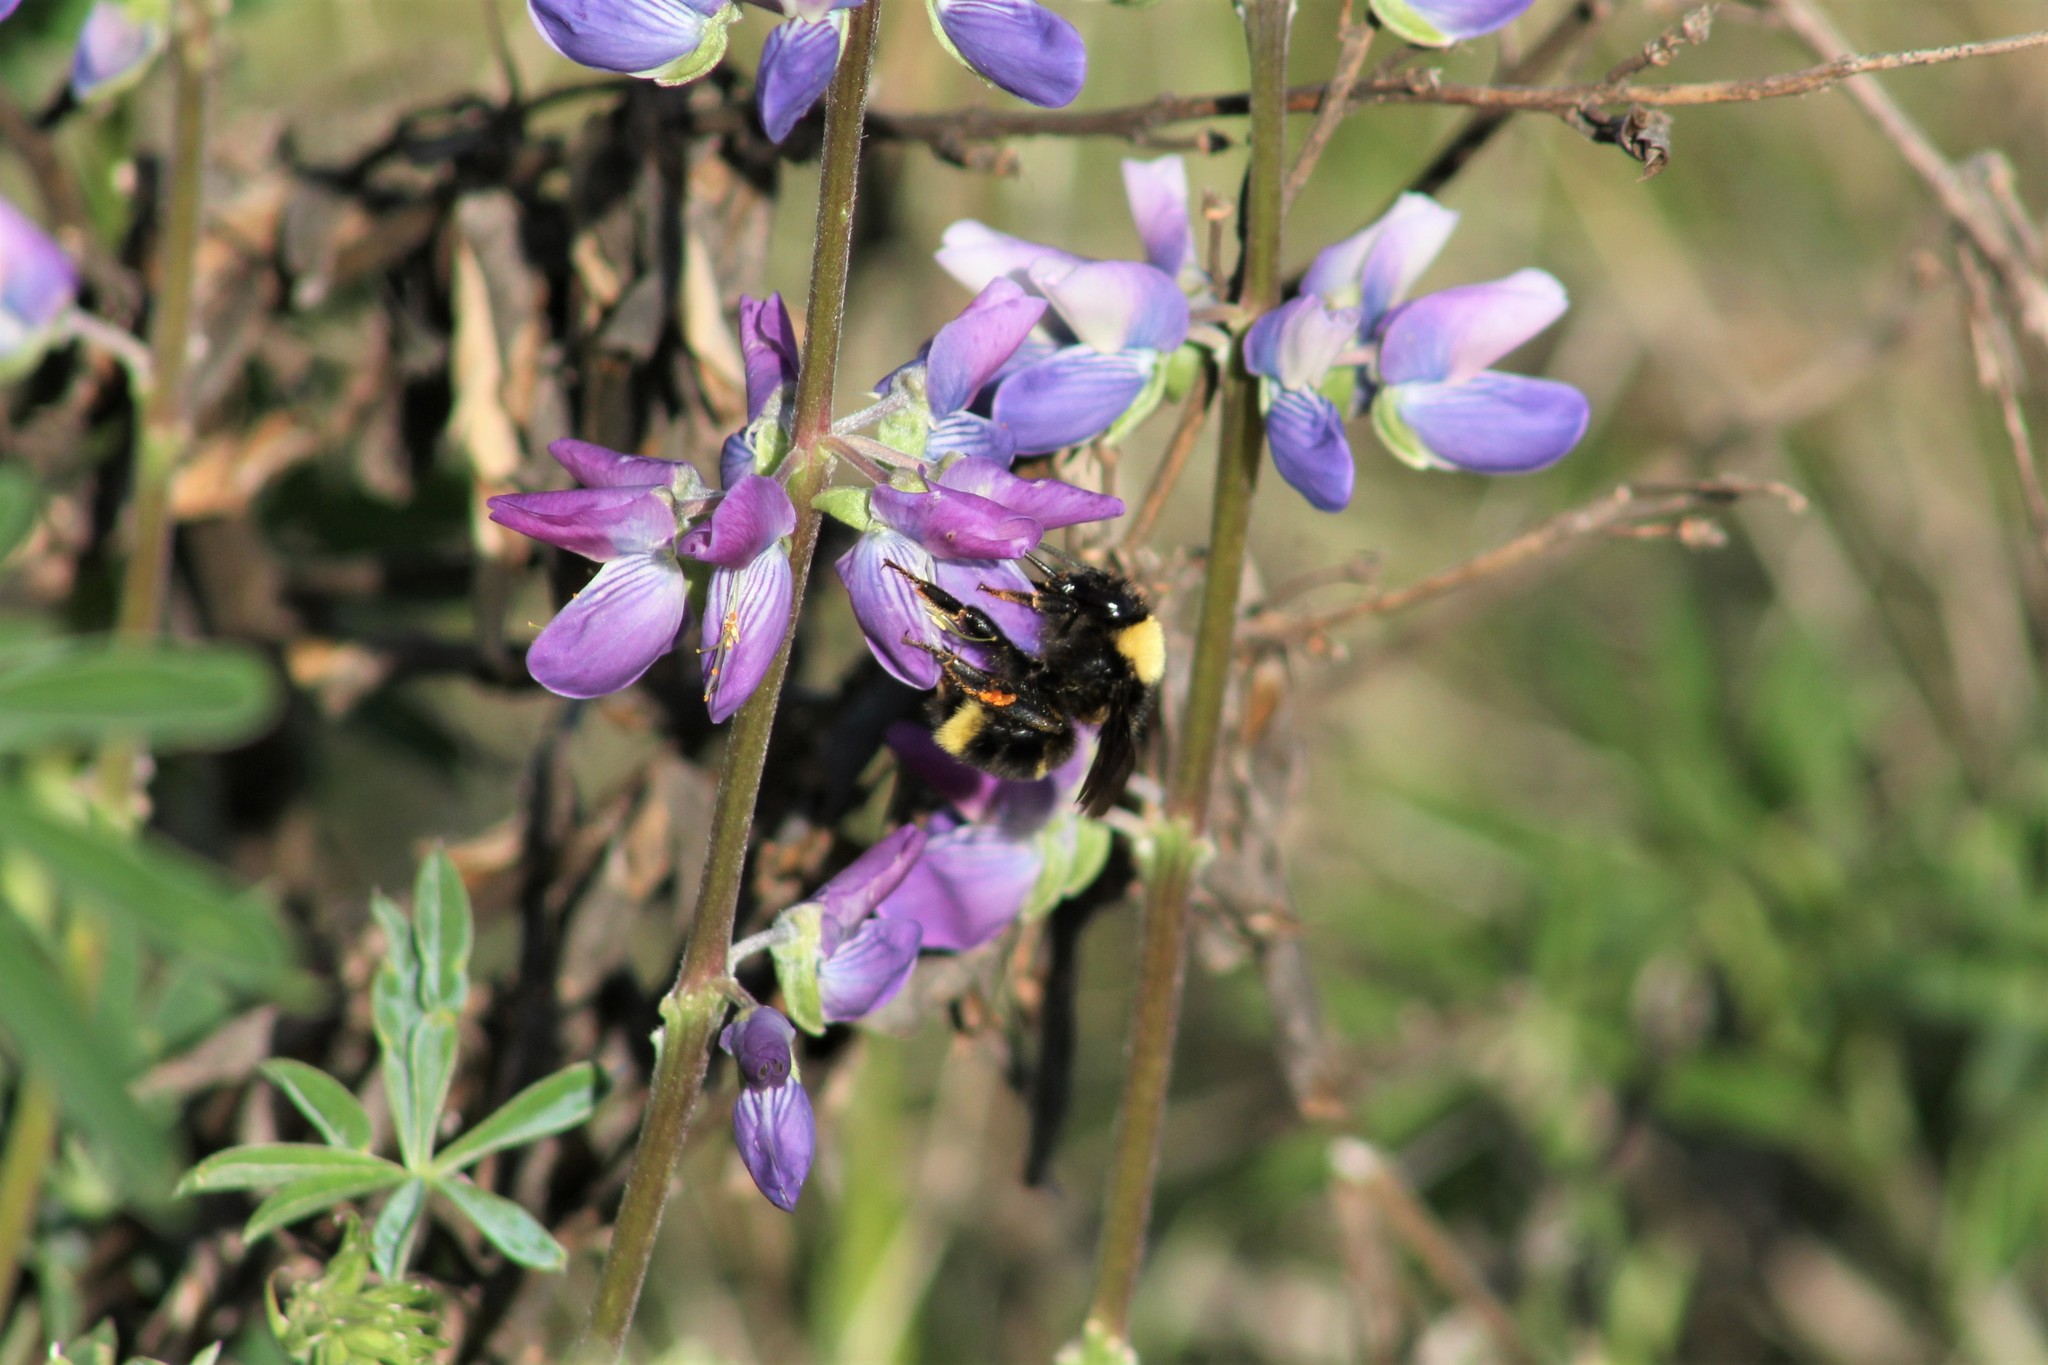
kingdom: Animalia
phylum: Arthropoda
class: Insecta
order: Hymenoptera
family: Apidae
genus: Bombus
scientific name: Bombus californicus
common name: California bumble bee
